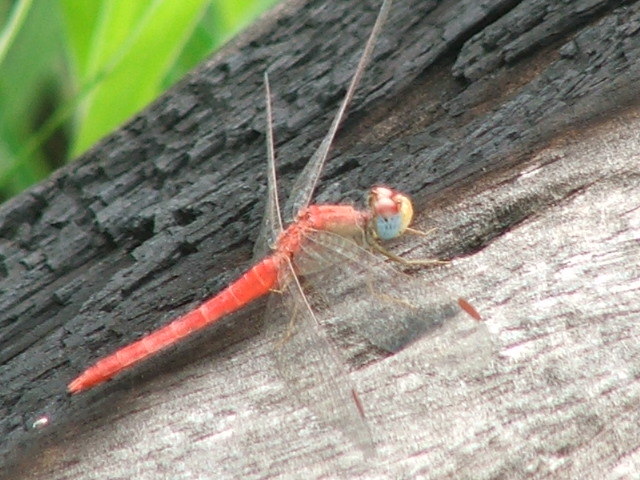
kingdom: Animalia
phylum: Arthropoda
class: Insecta
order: Odonata
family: Libellulidae
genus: Crocothemis
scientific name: Crocothemis divisa
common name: Divisa scarlet
